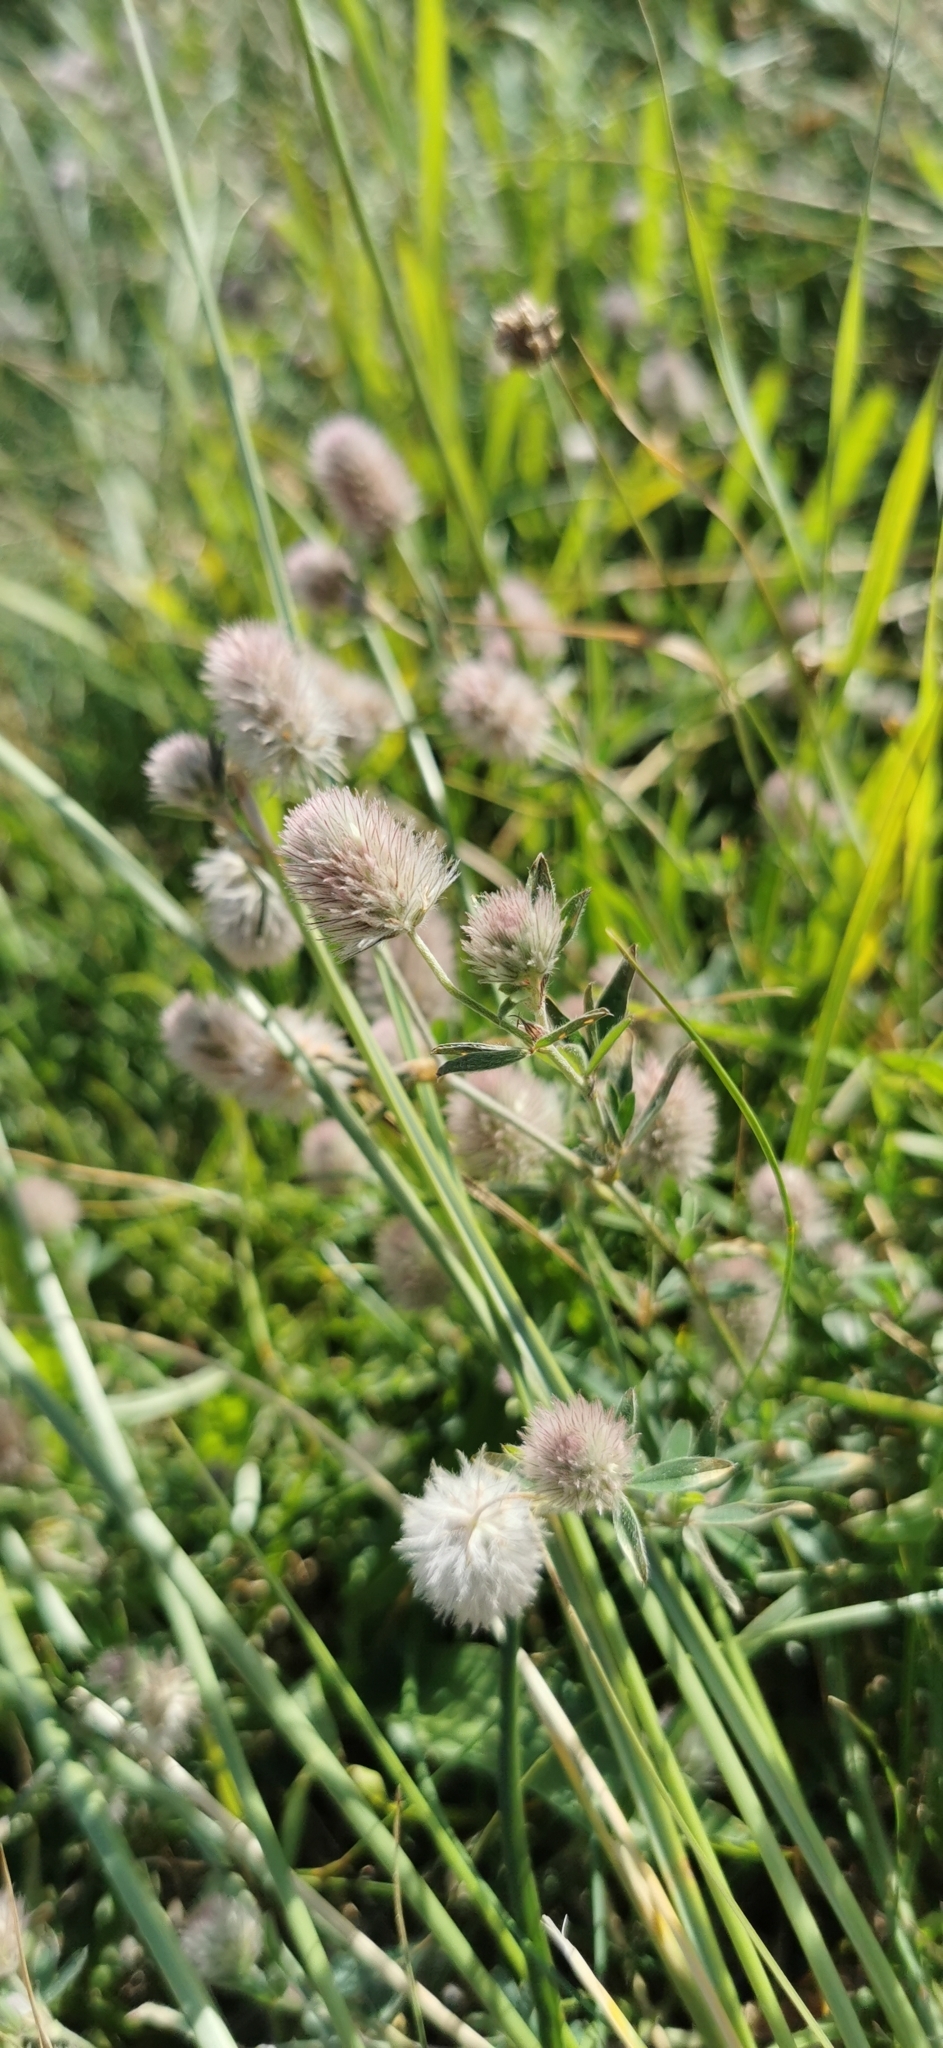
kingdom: Plantae
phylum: Tracheophyta
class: Magnoliopsida
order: Fabales
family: Fabaceae
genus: Trifolium
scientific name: Trifolium arvense
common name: Hare's-foot clover
